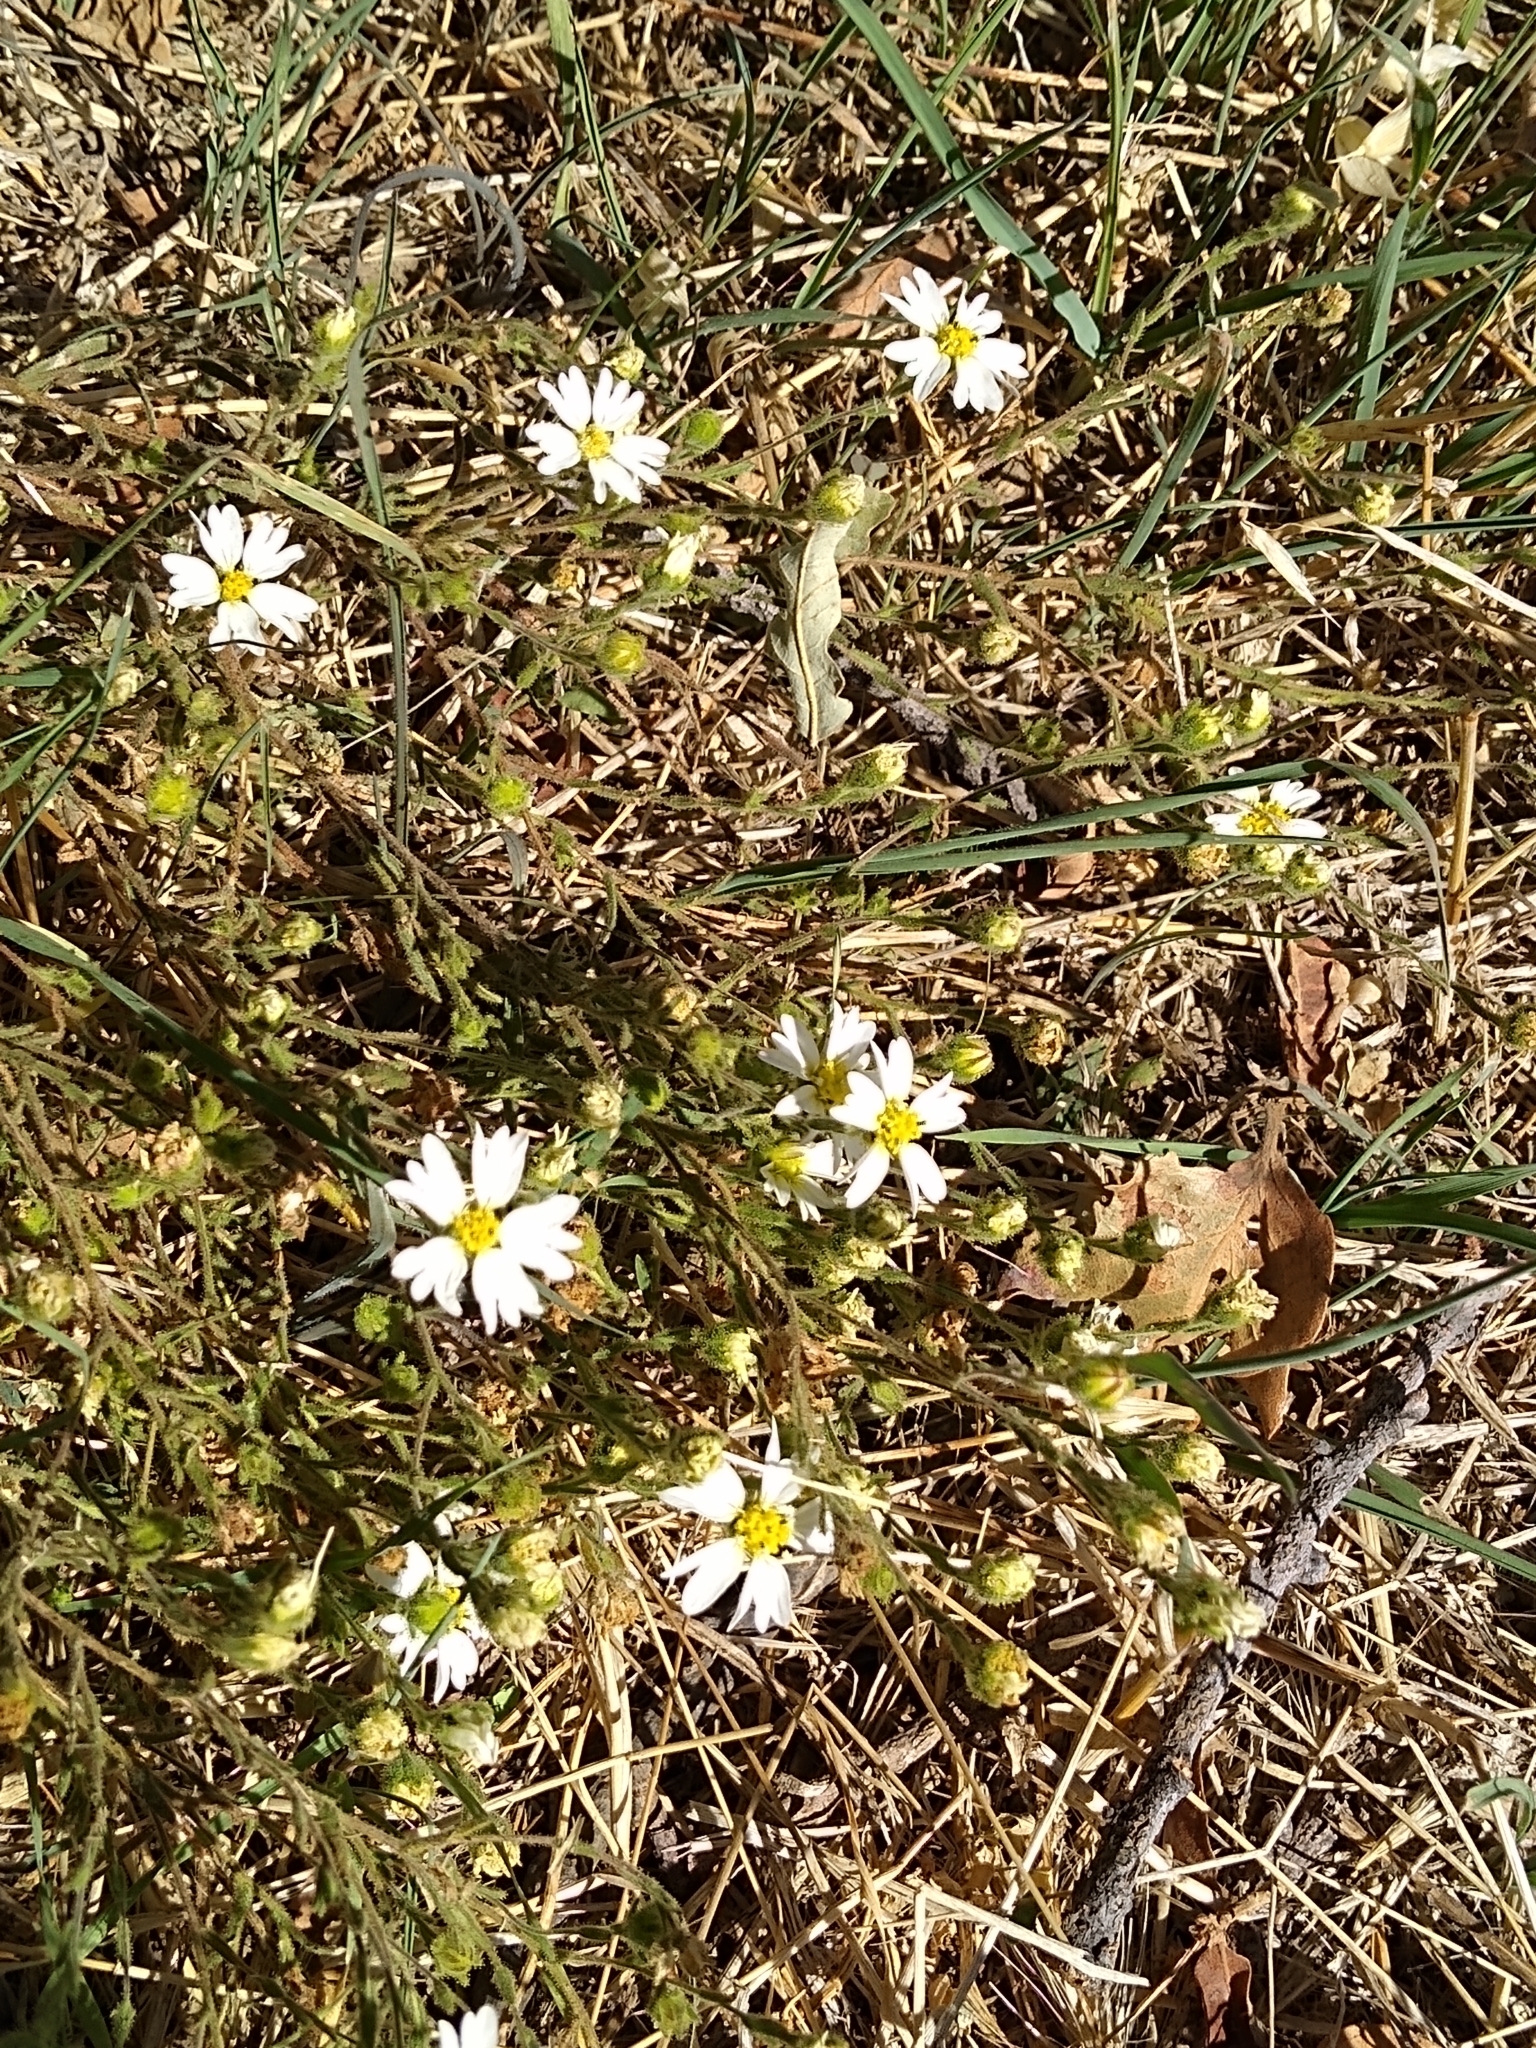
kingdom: Plantae
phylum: Tracheophyta
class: Magnoliopsida
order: Asterales
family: Asteraceae
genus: Hemizonia
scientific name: Hemizonia congesta
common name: Hayfield tarweed
